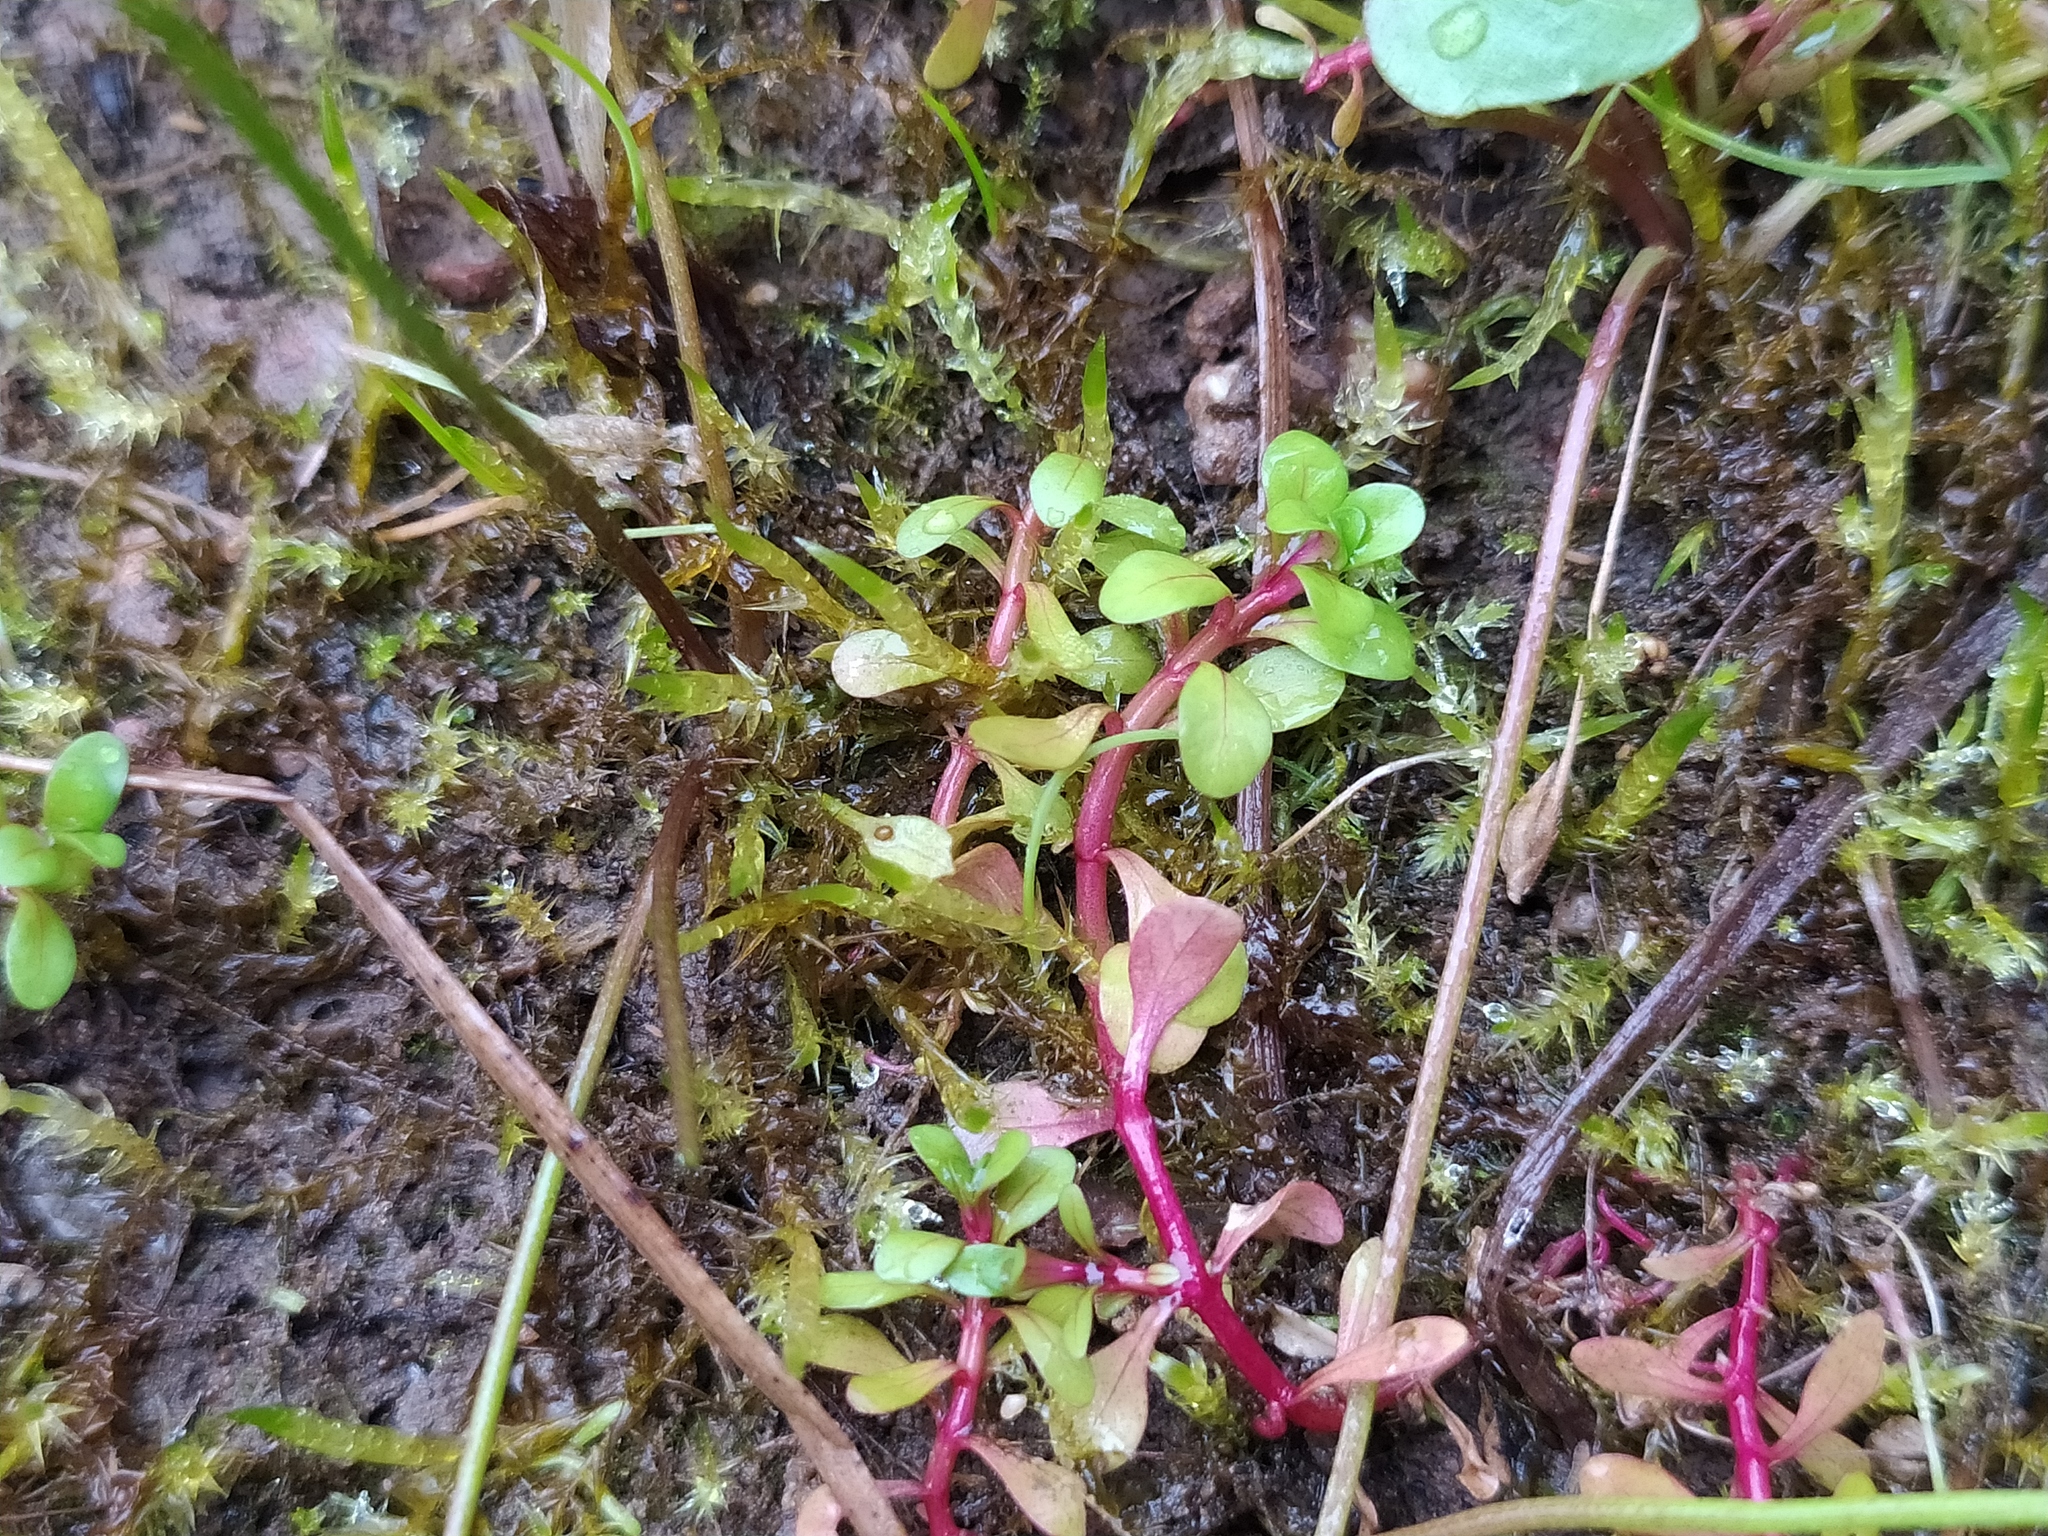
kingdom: Plantae
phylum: Tracheophyta
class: Magnoliopsida
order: Myrtales
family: Lythraceae
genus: Lythrum
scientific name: Lythrum portula
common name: Water purslane
